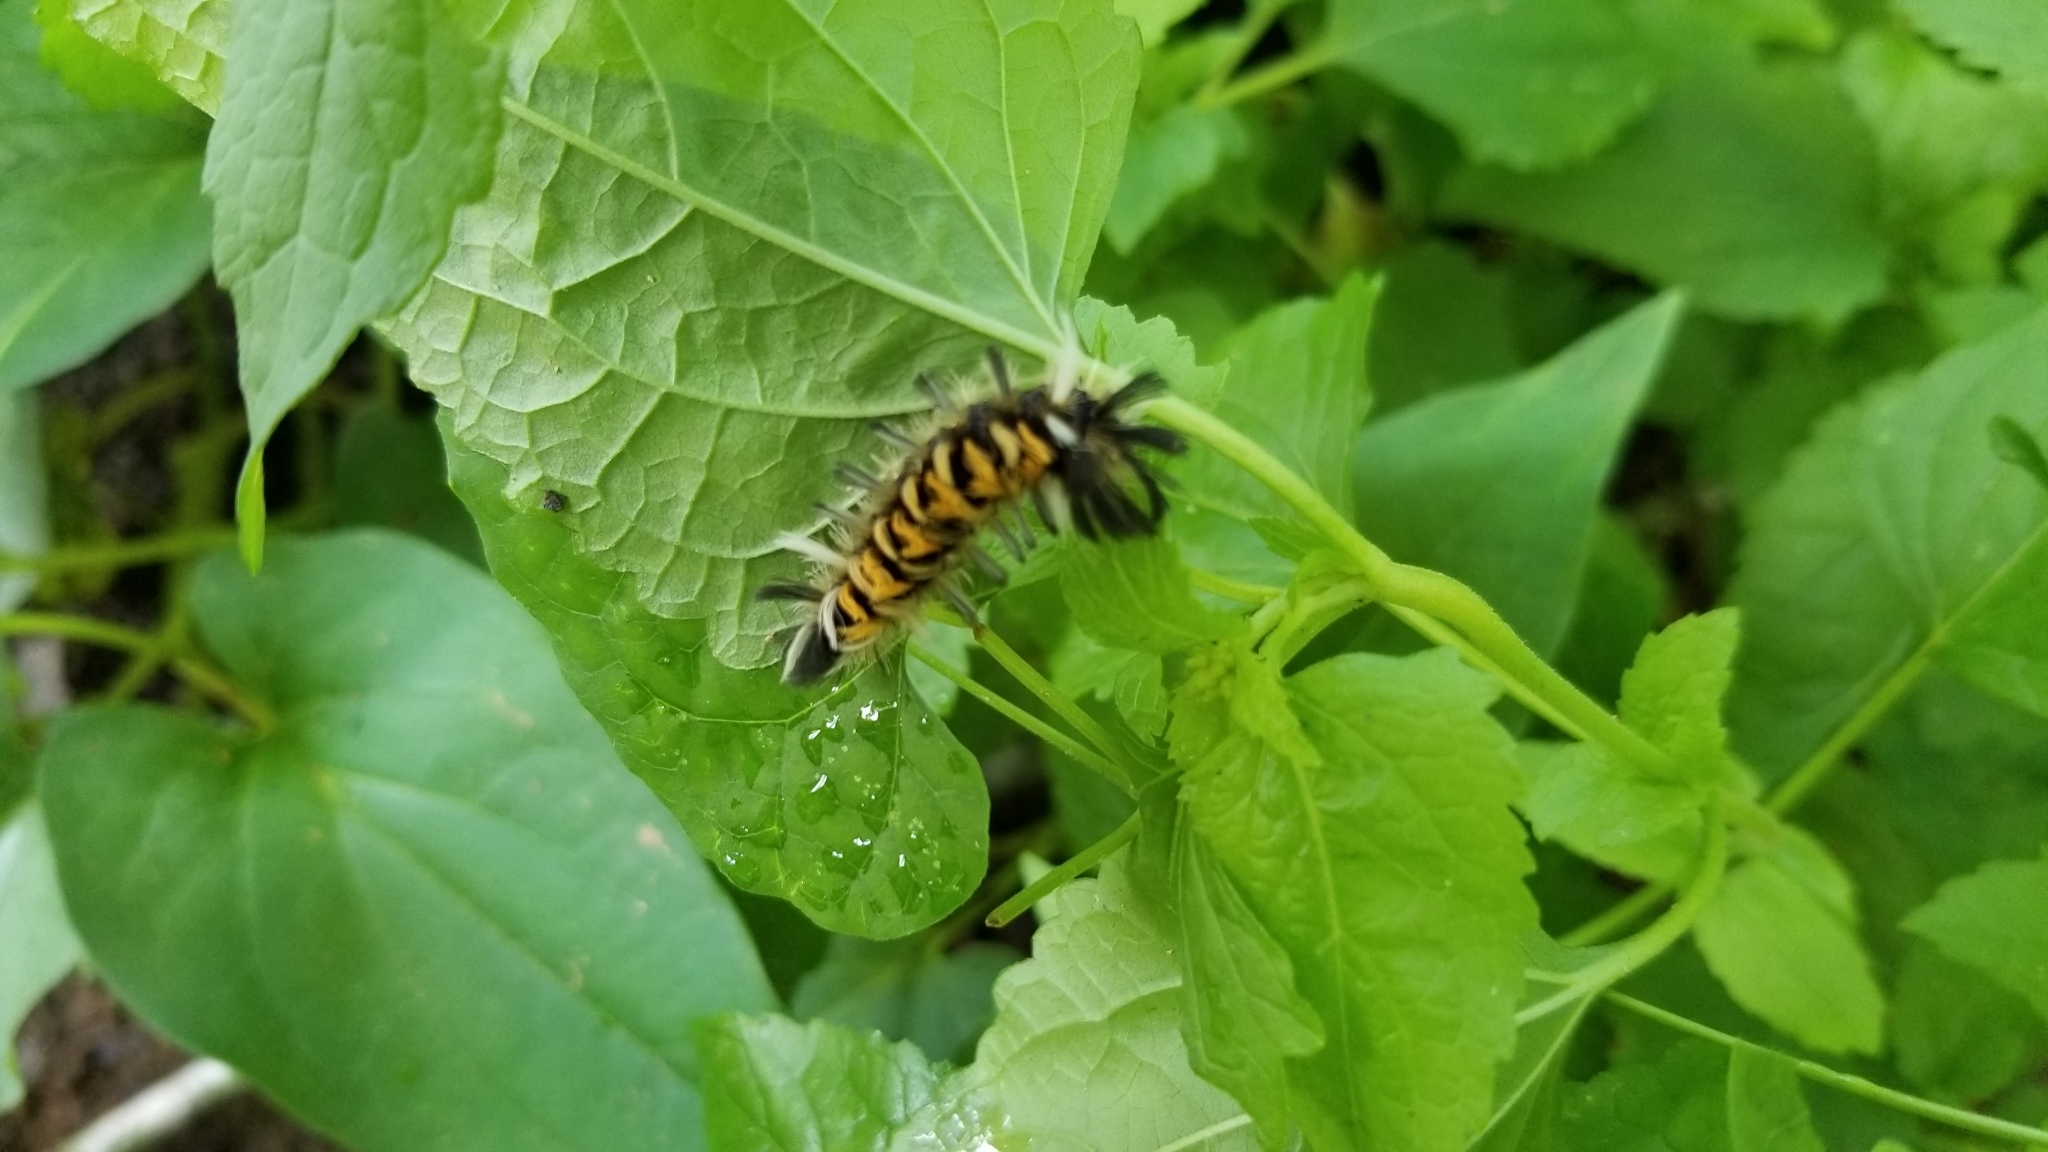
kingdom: Animalia
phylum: Arthropoda
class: Insecta
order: Lepidoptera
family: Erebidae
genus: Euchaetes
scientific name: Euchaetes egle
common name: Milkweed tussock moth
